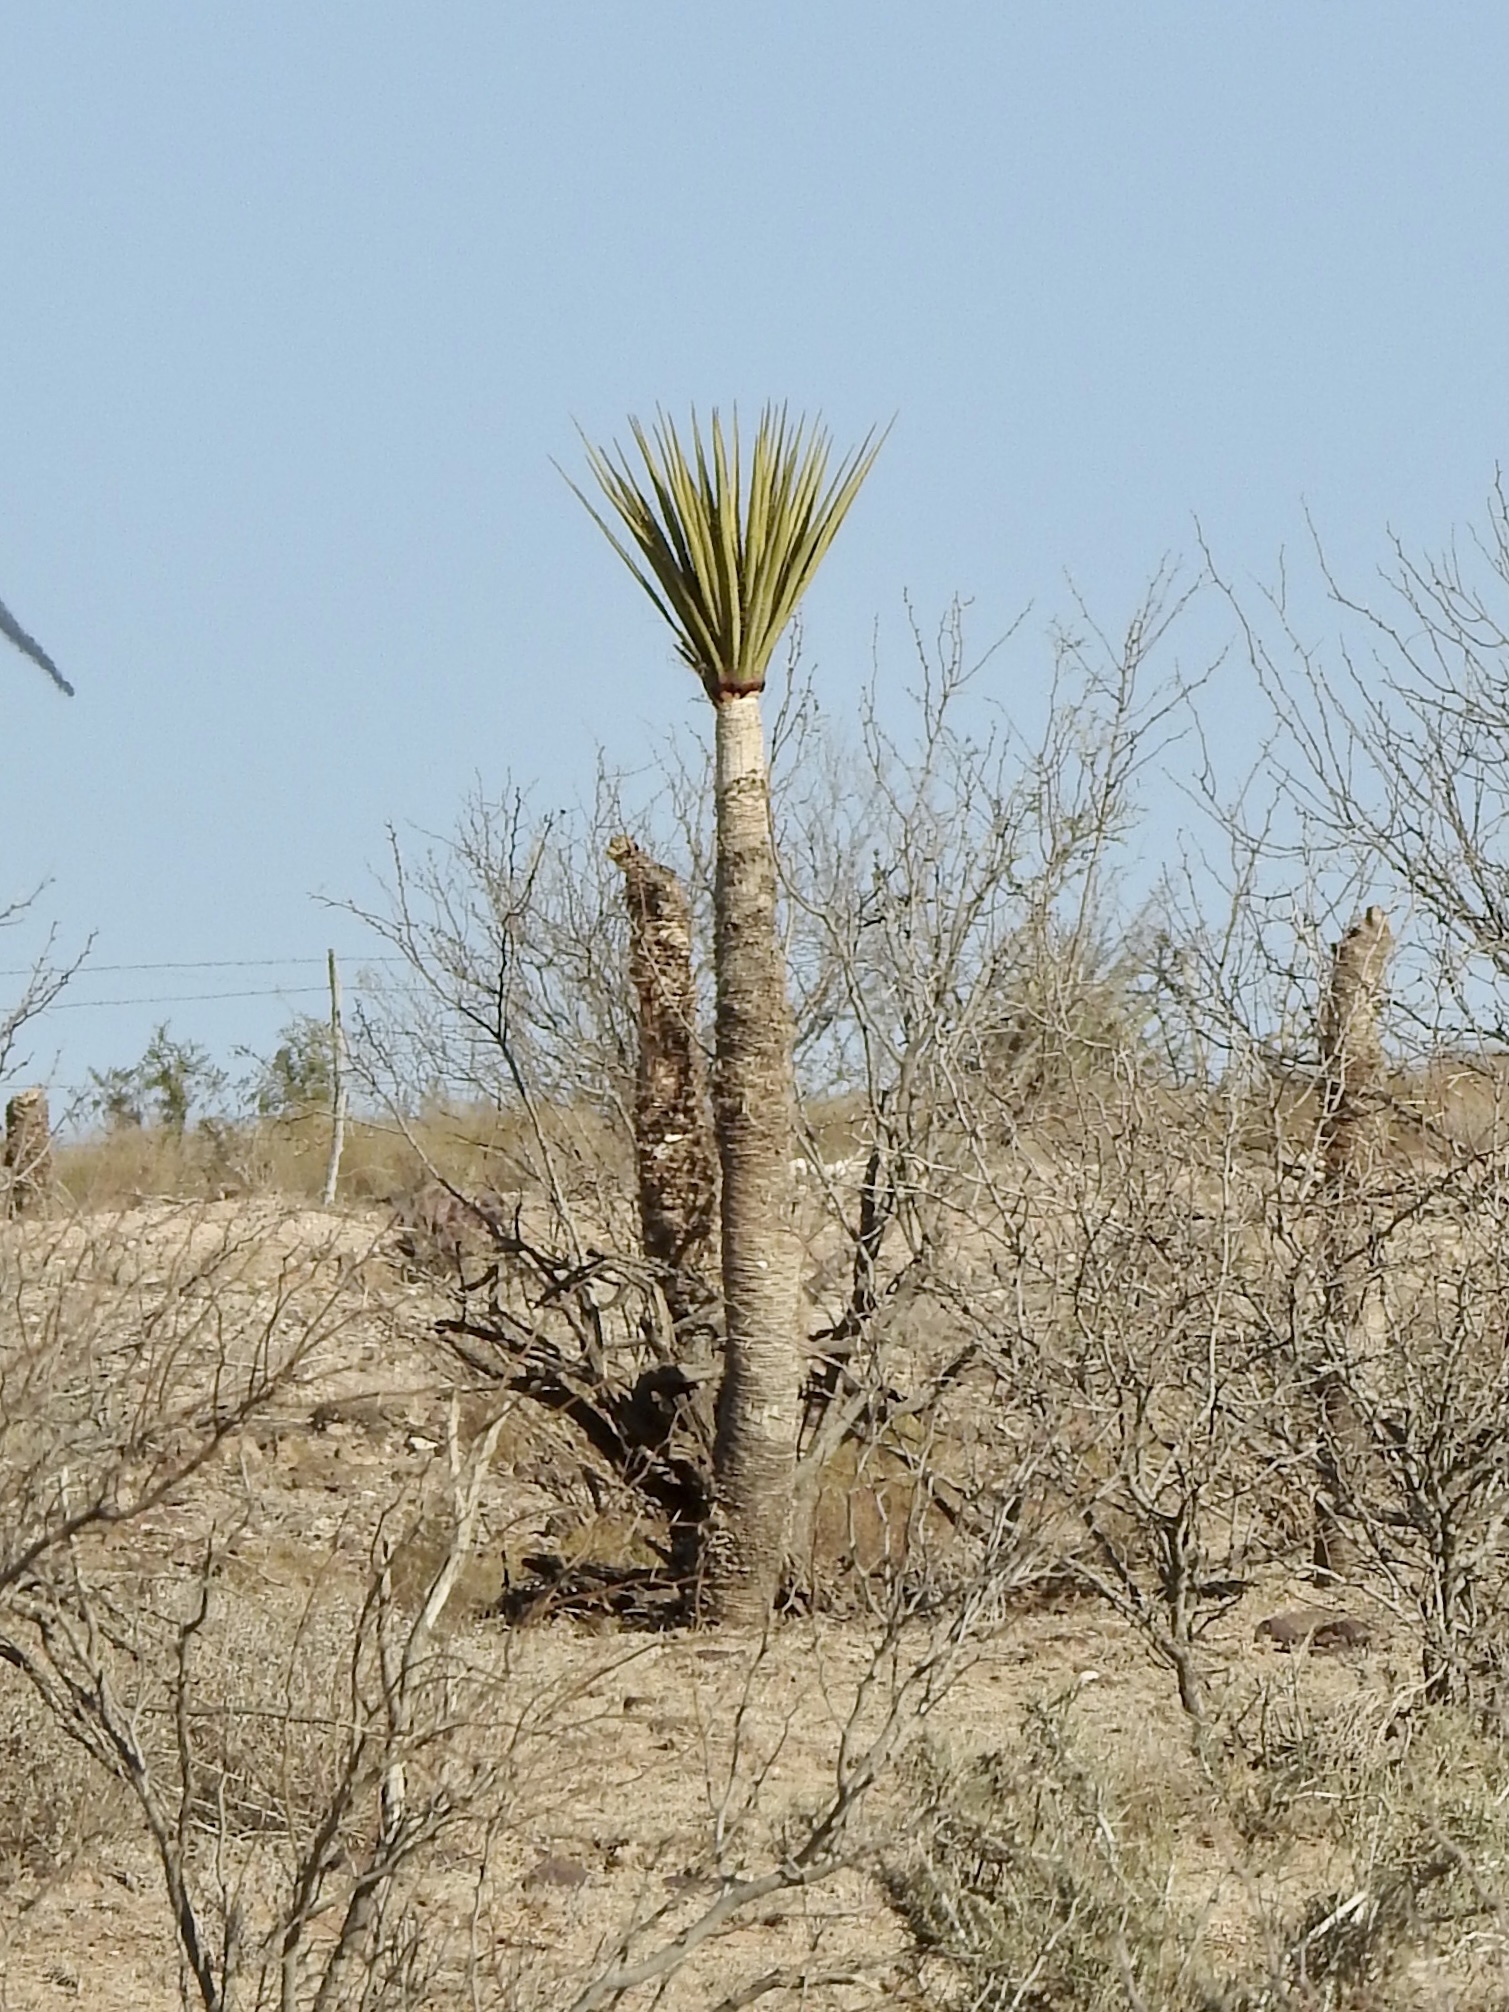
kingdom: Plantae
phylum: Tracheophyta
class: Liliopsida
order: Asparagales
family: Asparagaceae
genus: Yucca
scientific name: Yucca treculiana
